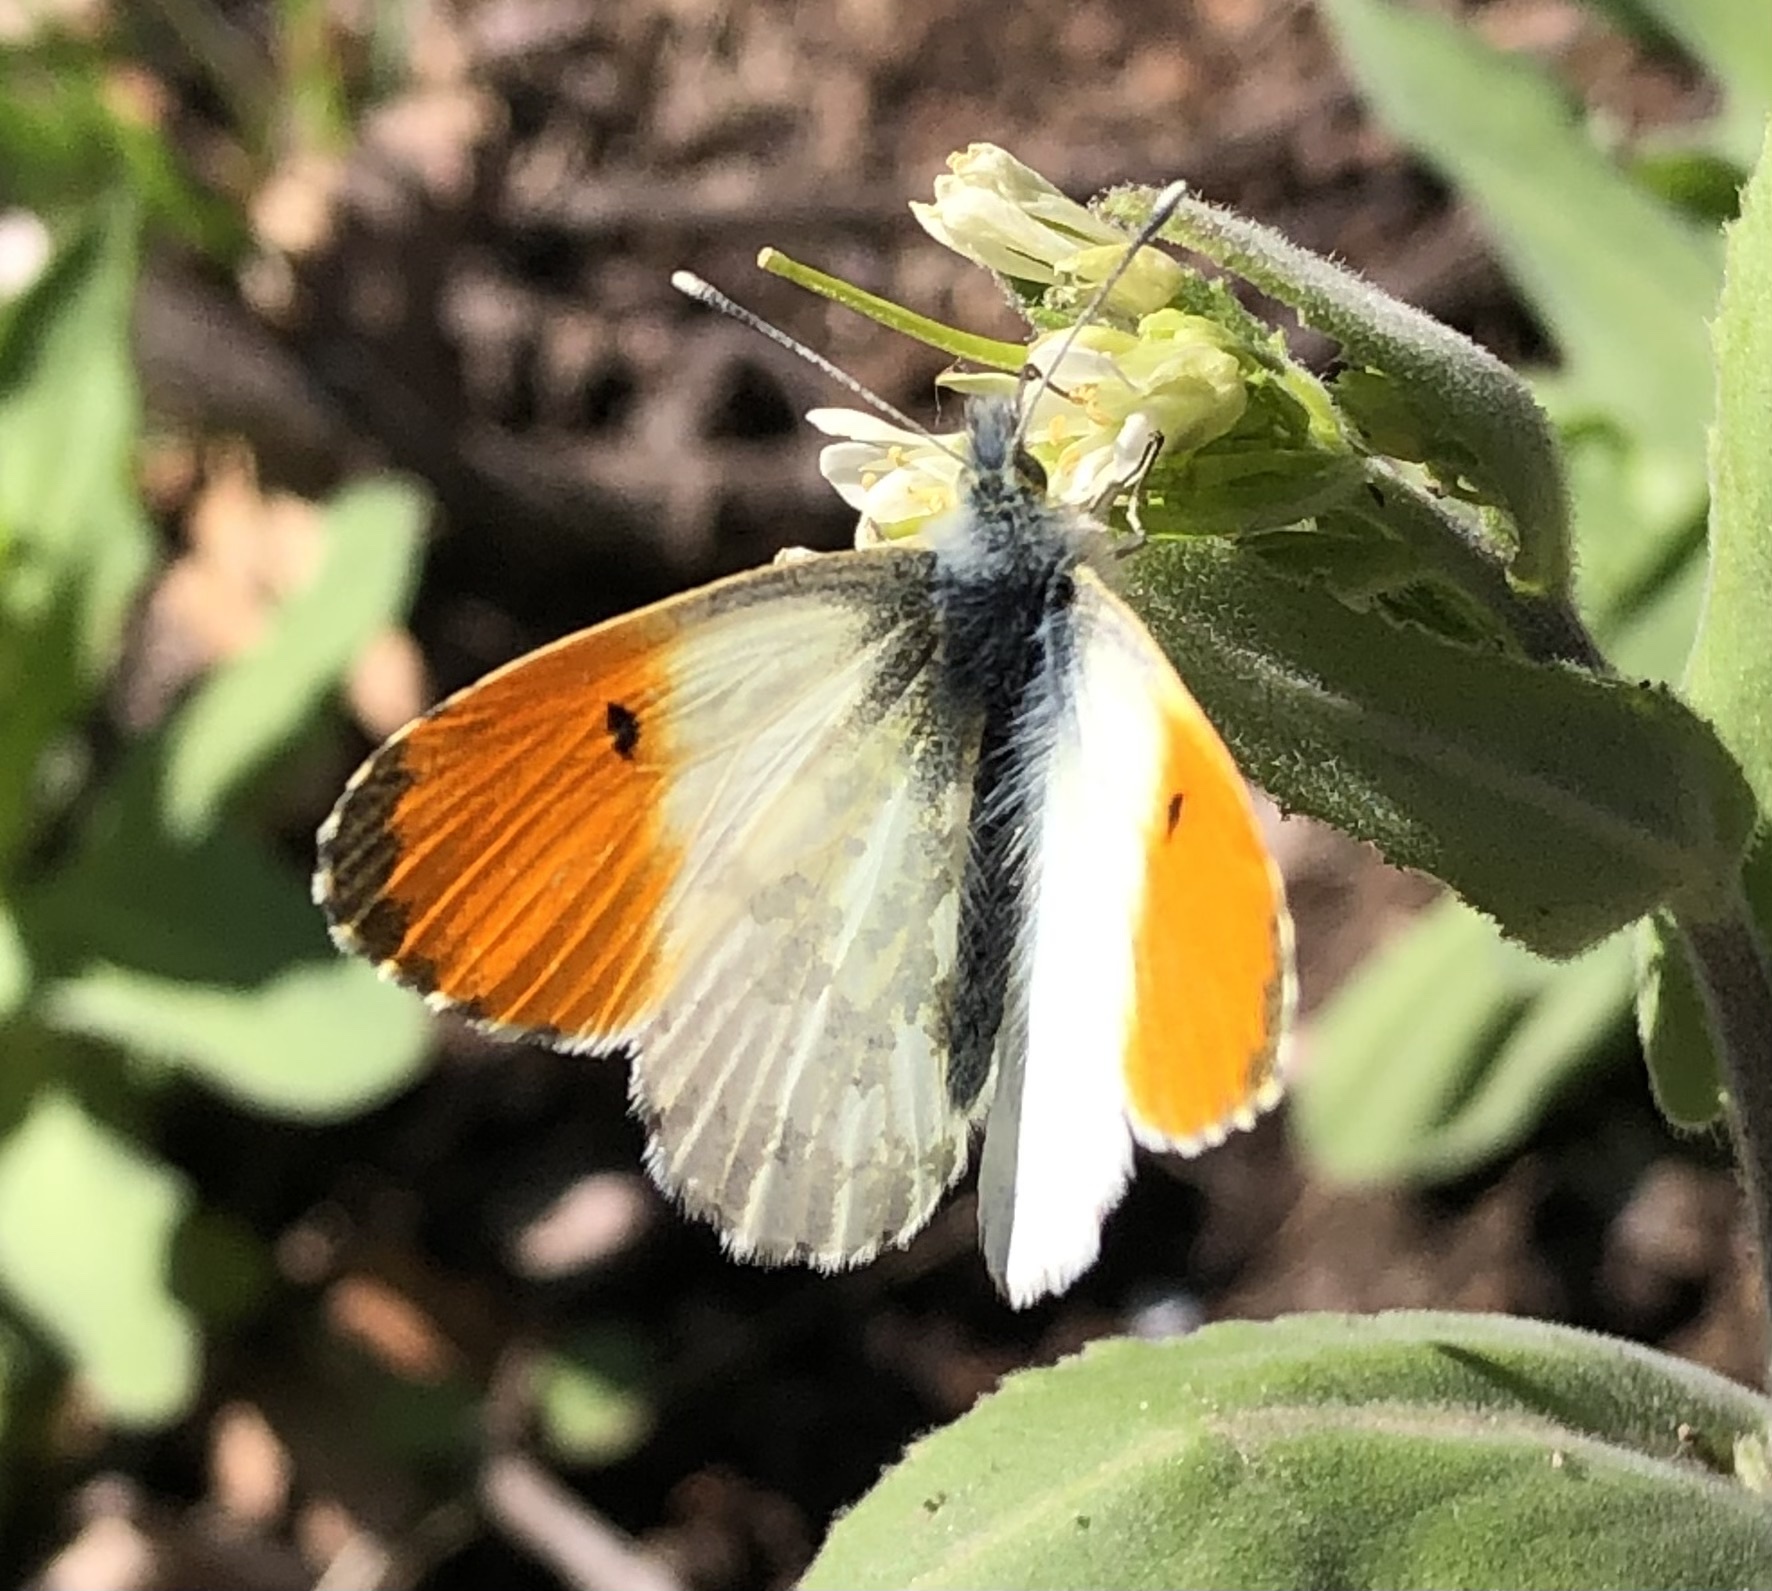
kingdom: Animalia
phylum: Arthropoda
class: Insecta
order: Lepidoptera
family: Pieridae
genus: Anthocharis
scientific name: Anthocharis cardamines
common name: Orange-tip
